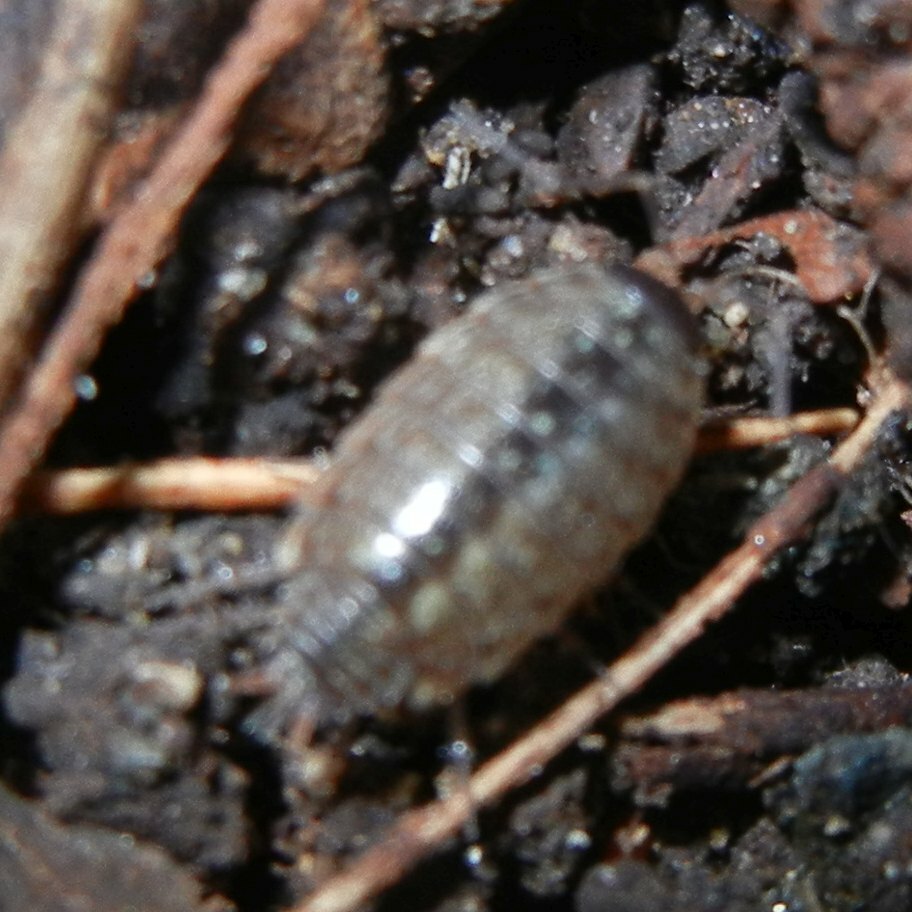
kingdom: Animalia
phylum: Arthropoda
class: Malacostraca
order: Isopoda
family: Philosciidae
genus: Philoscia
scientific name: Philoscia muscorum
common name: Common striped woodlouse
